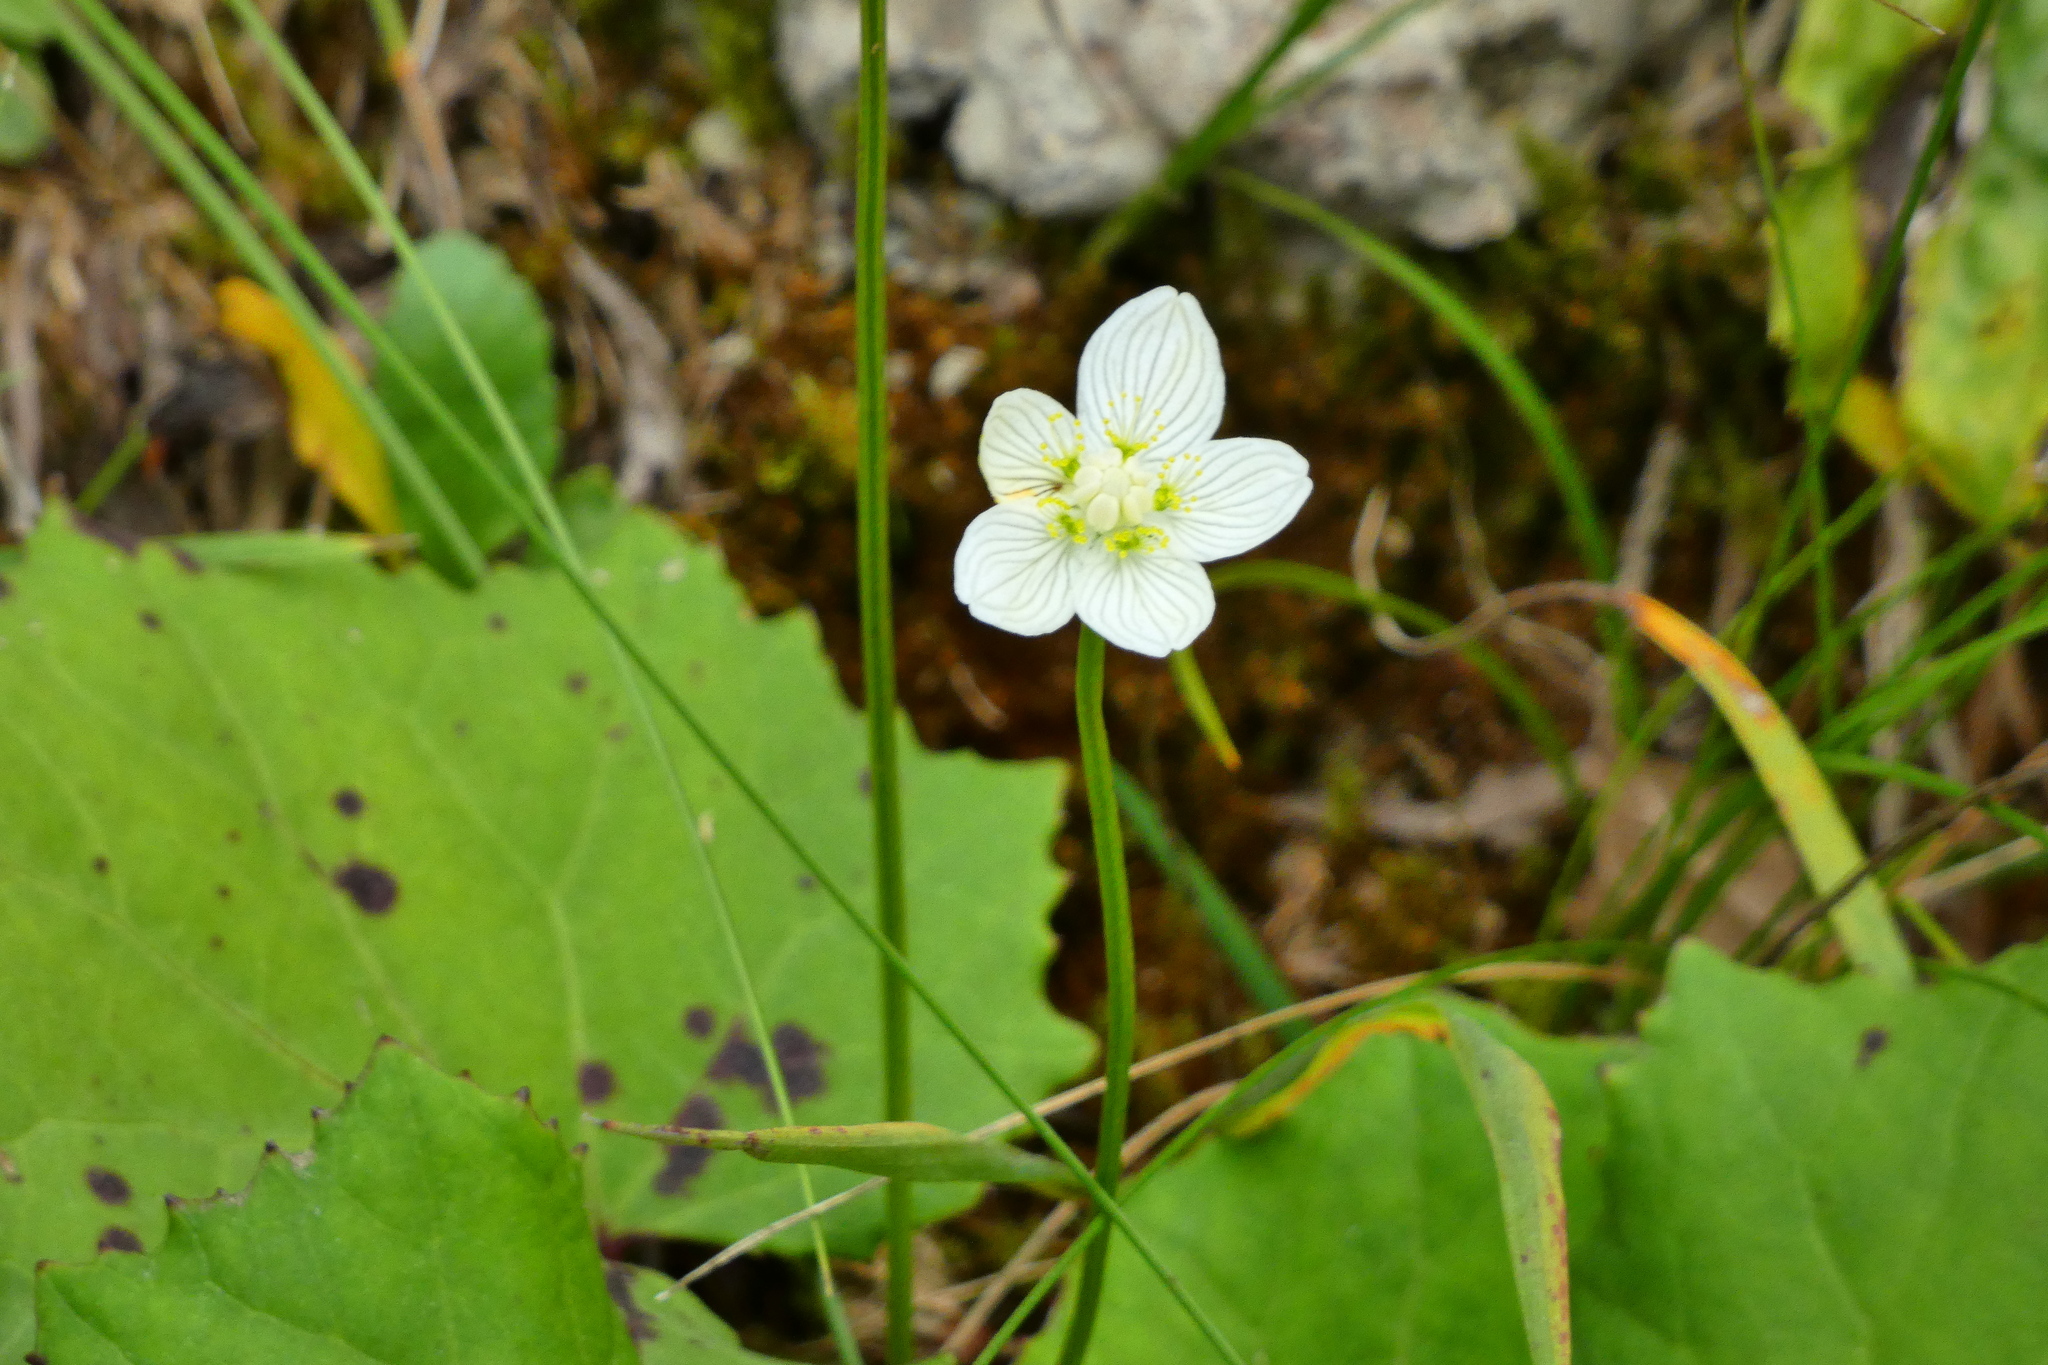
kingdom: Plantae
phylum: Tracheophyta
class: Magnoliopsida
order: Celastrales
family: Parnassiaceae
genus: Parnassia
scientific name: Parnassia palustris
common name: Grass-of-parnassus
